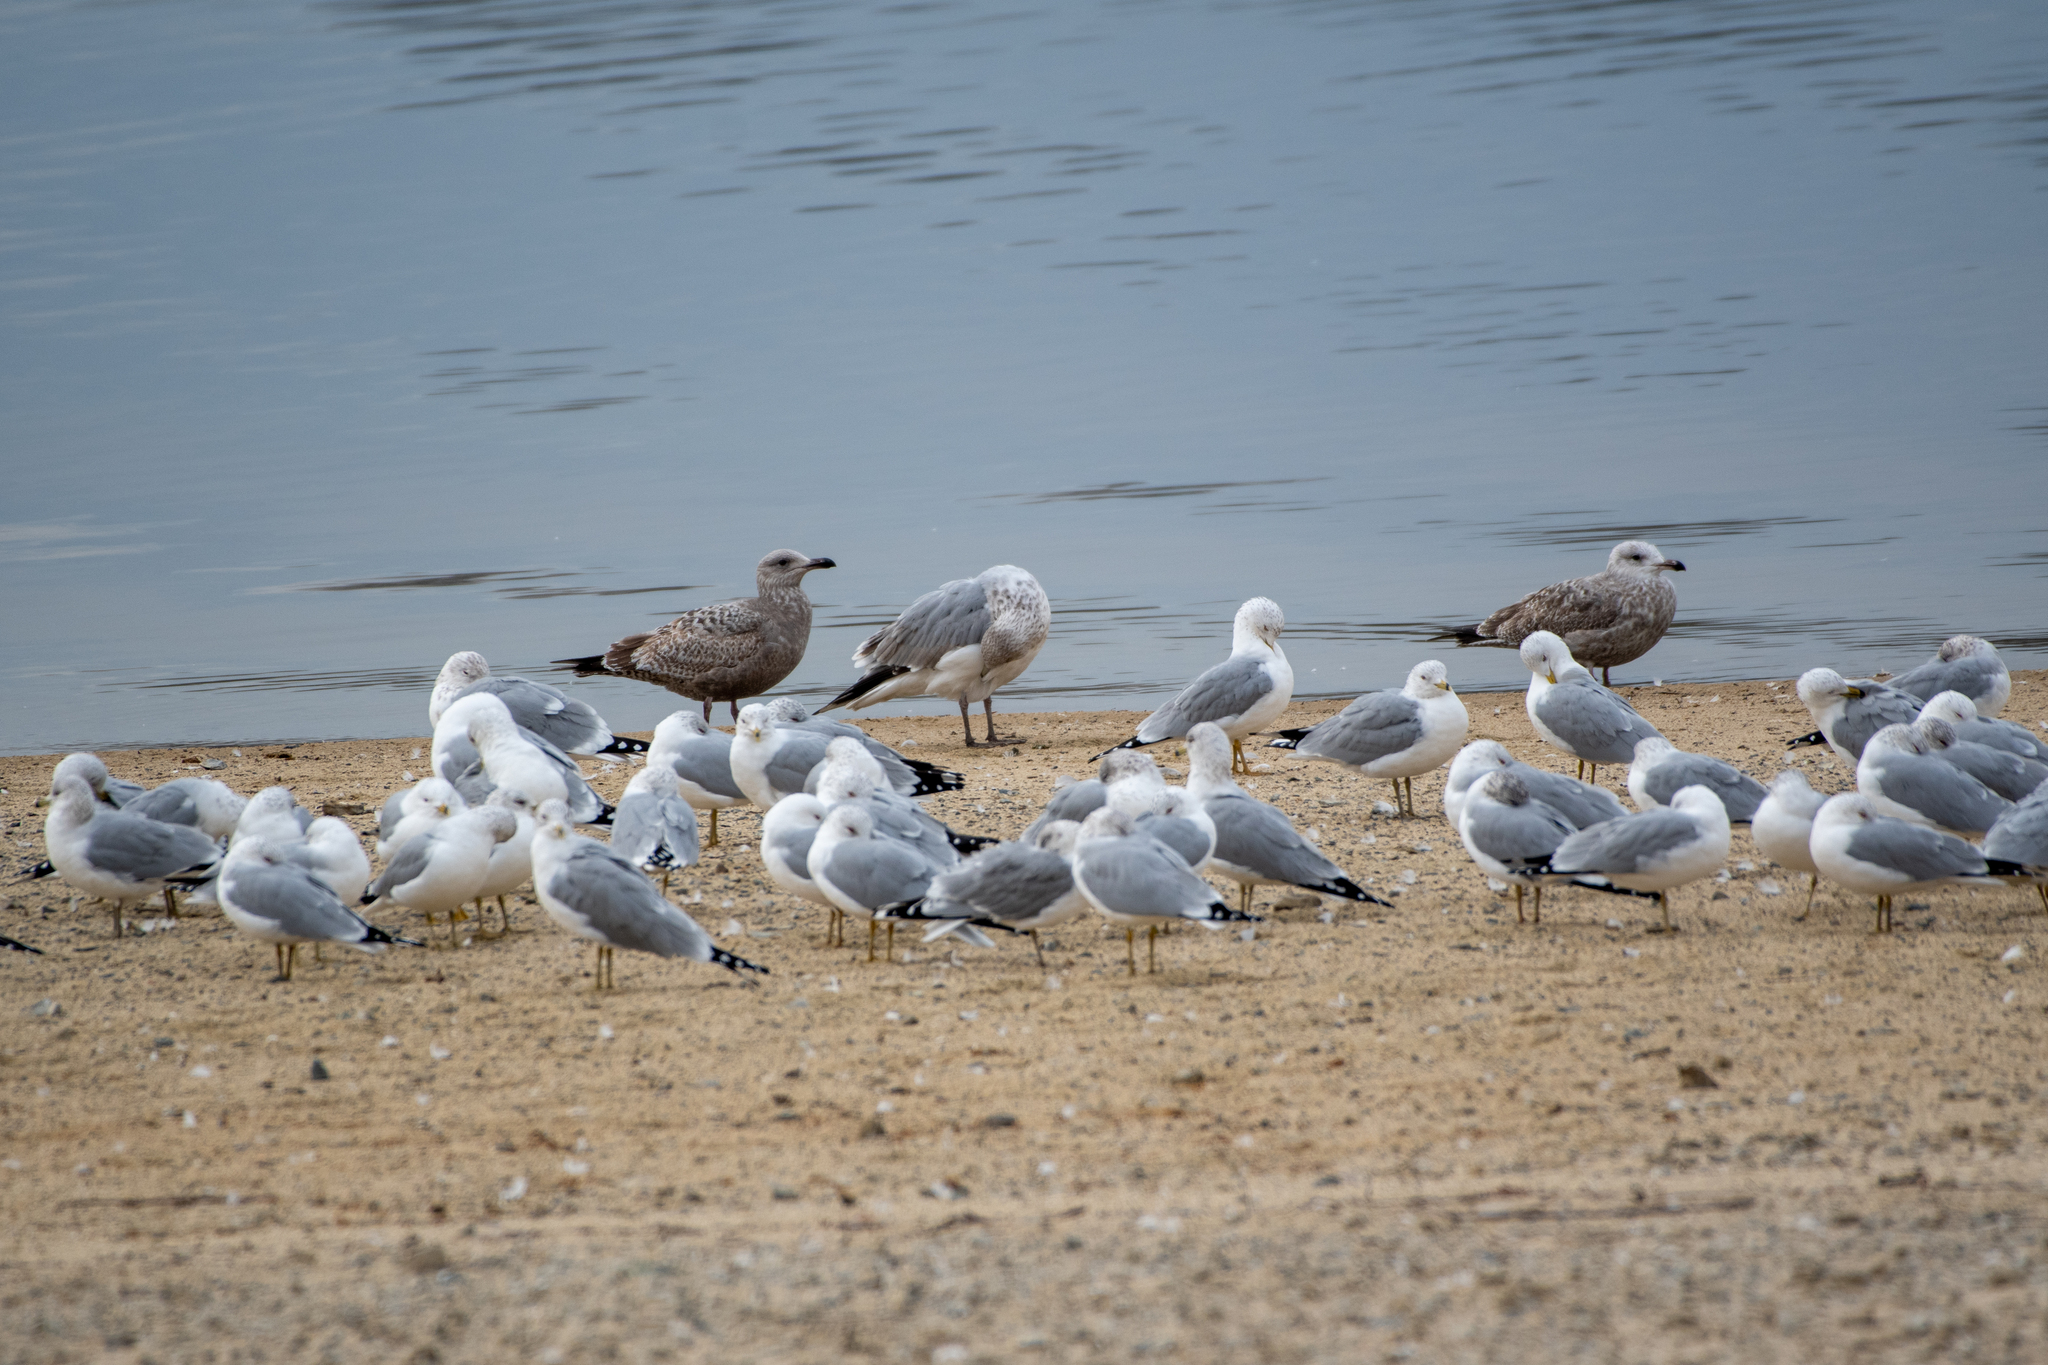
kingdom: Animalia
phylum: Chordata
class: Aves
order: Charadriiformes
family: Laridae
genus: Larus
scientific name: Larus argentatus
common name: Herring gull
